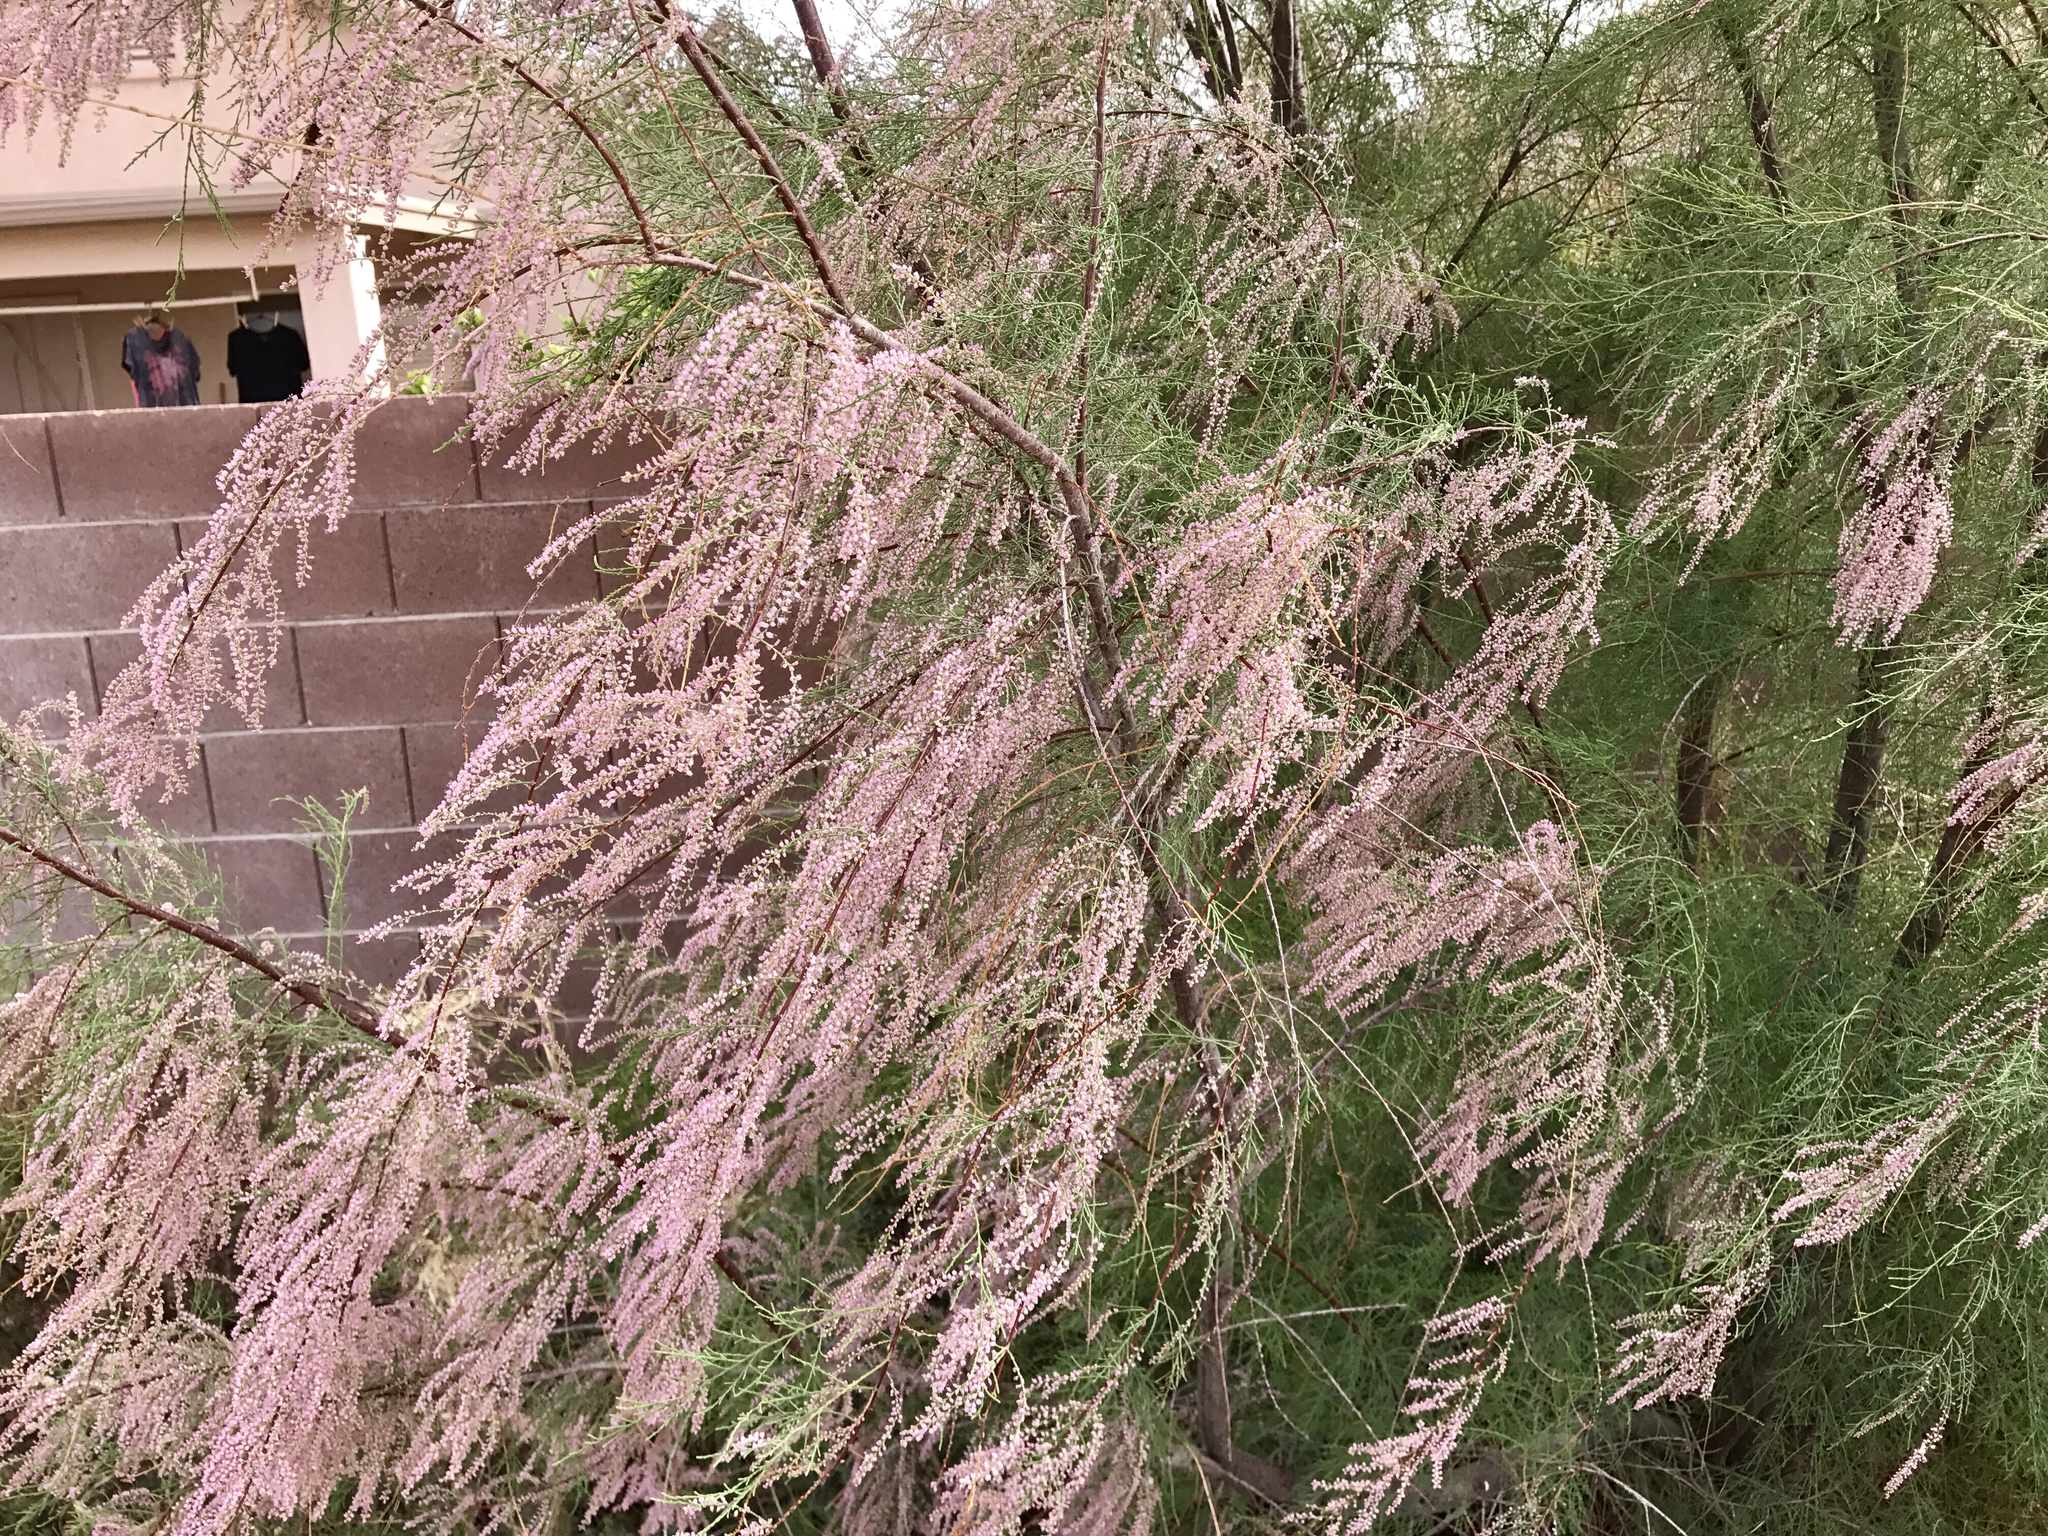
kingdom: Plantae
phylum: Tracheophyta
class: Magnoliopsida
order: Caryophyllales
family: Tamaricaceae
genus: Tamarix
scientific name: Tamarix
